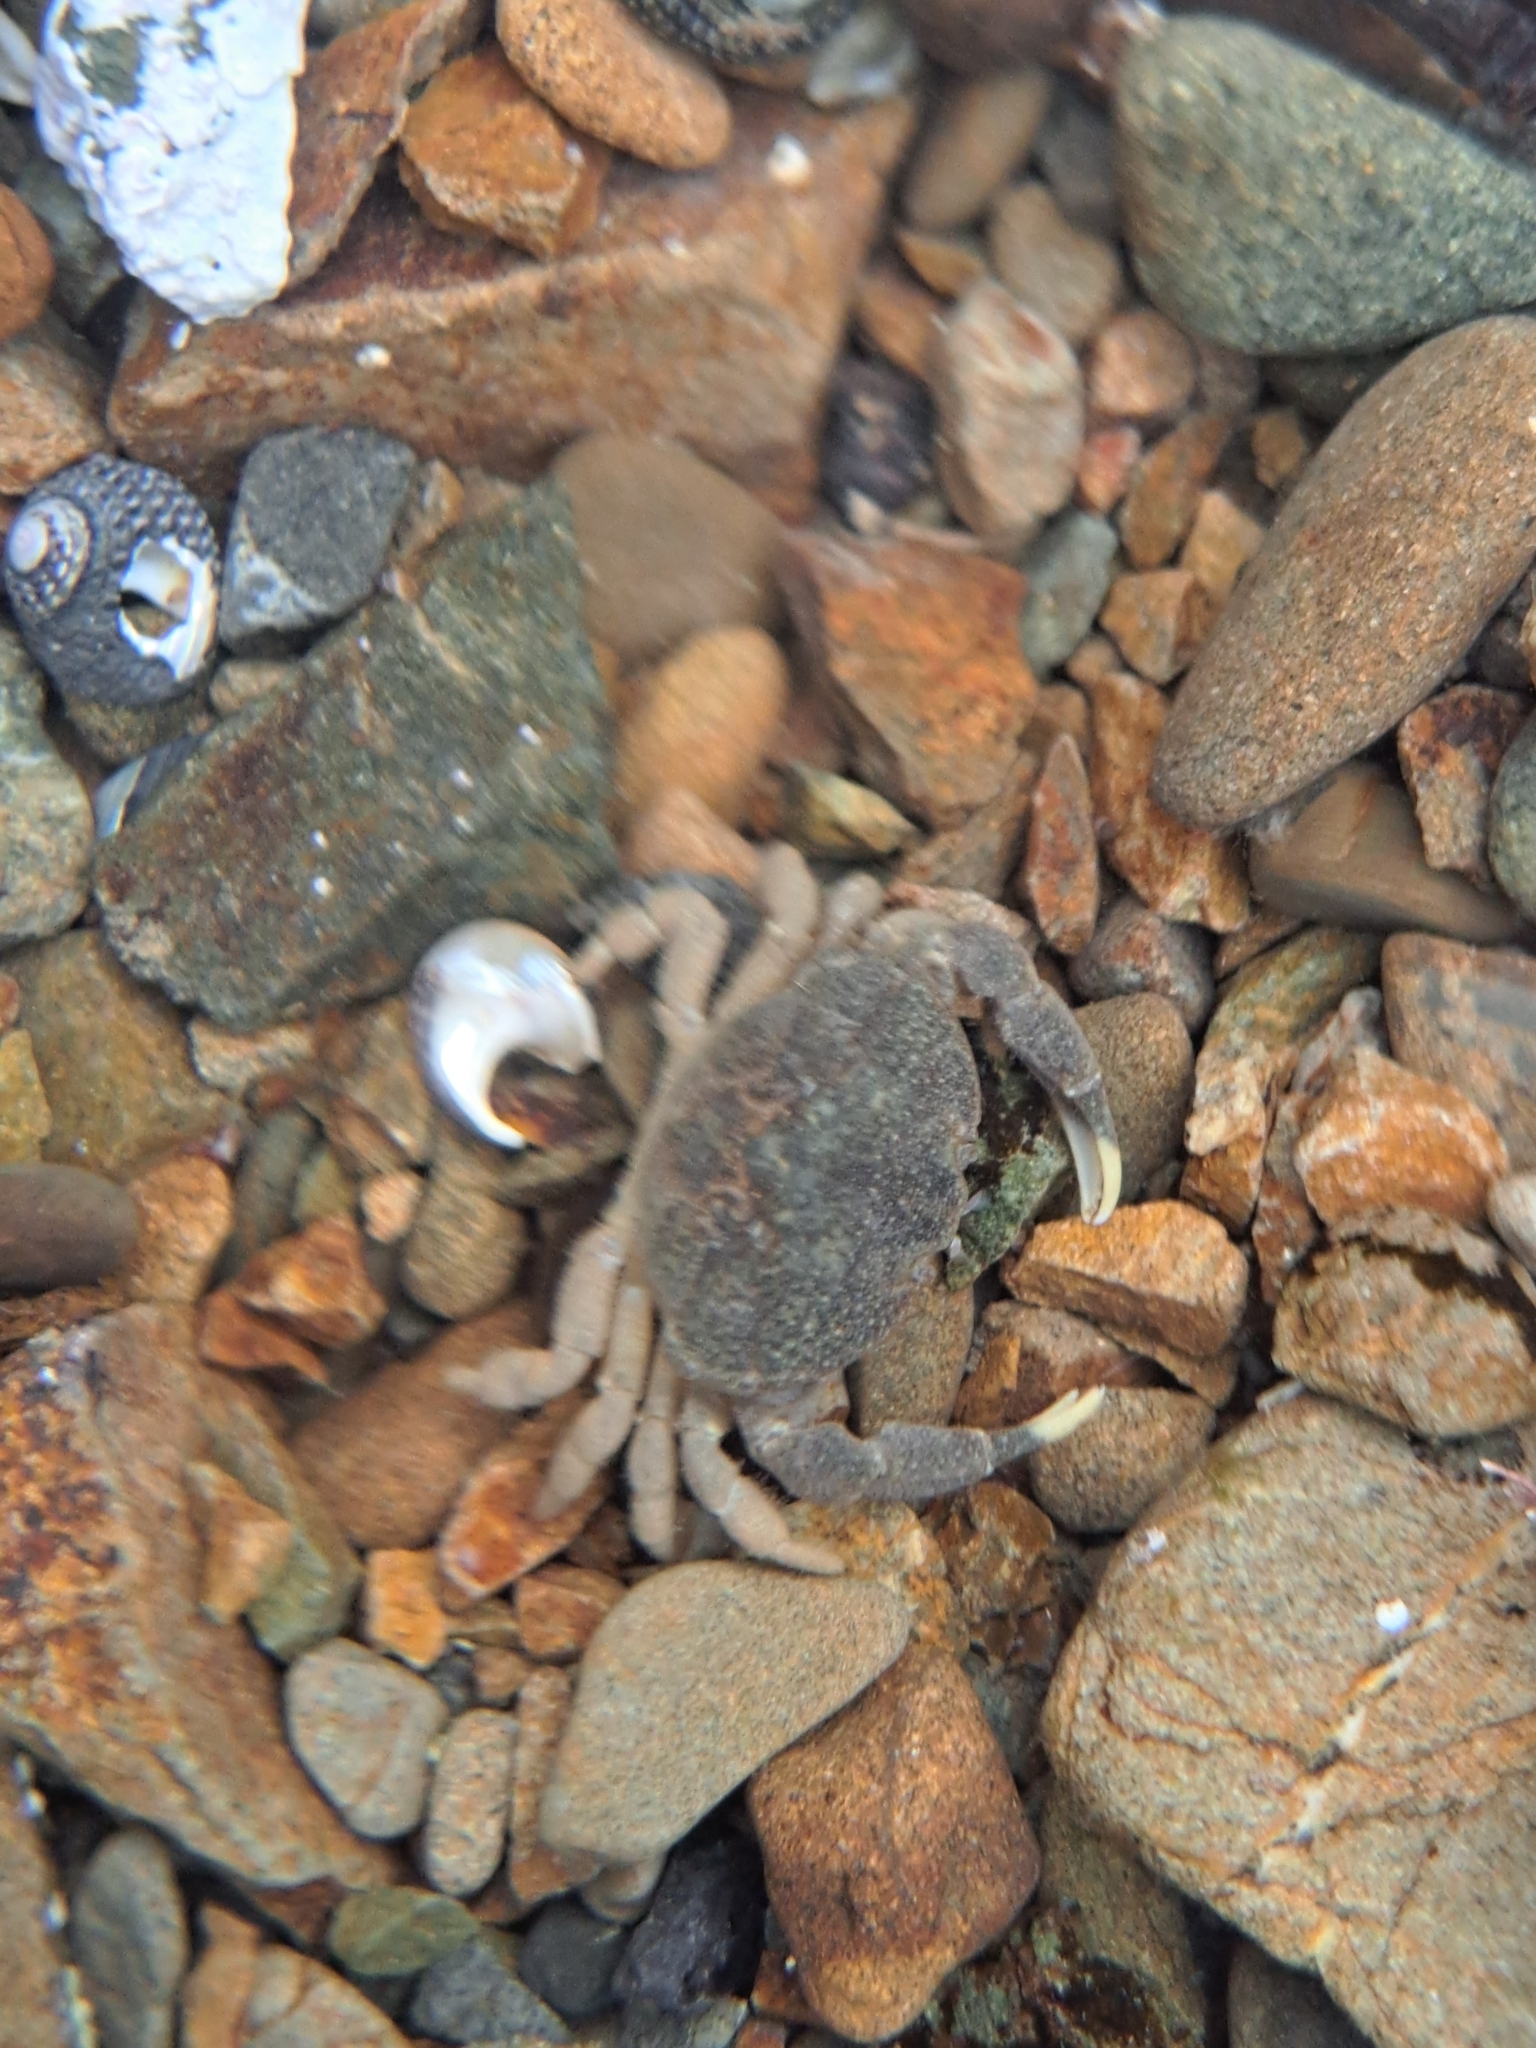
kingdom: Animalia
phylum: Arthropoda
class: Malacostraca
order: Decapoda
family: Heteroziidae
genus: Heterozius
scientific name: Heterozius rotundifrons
